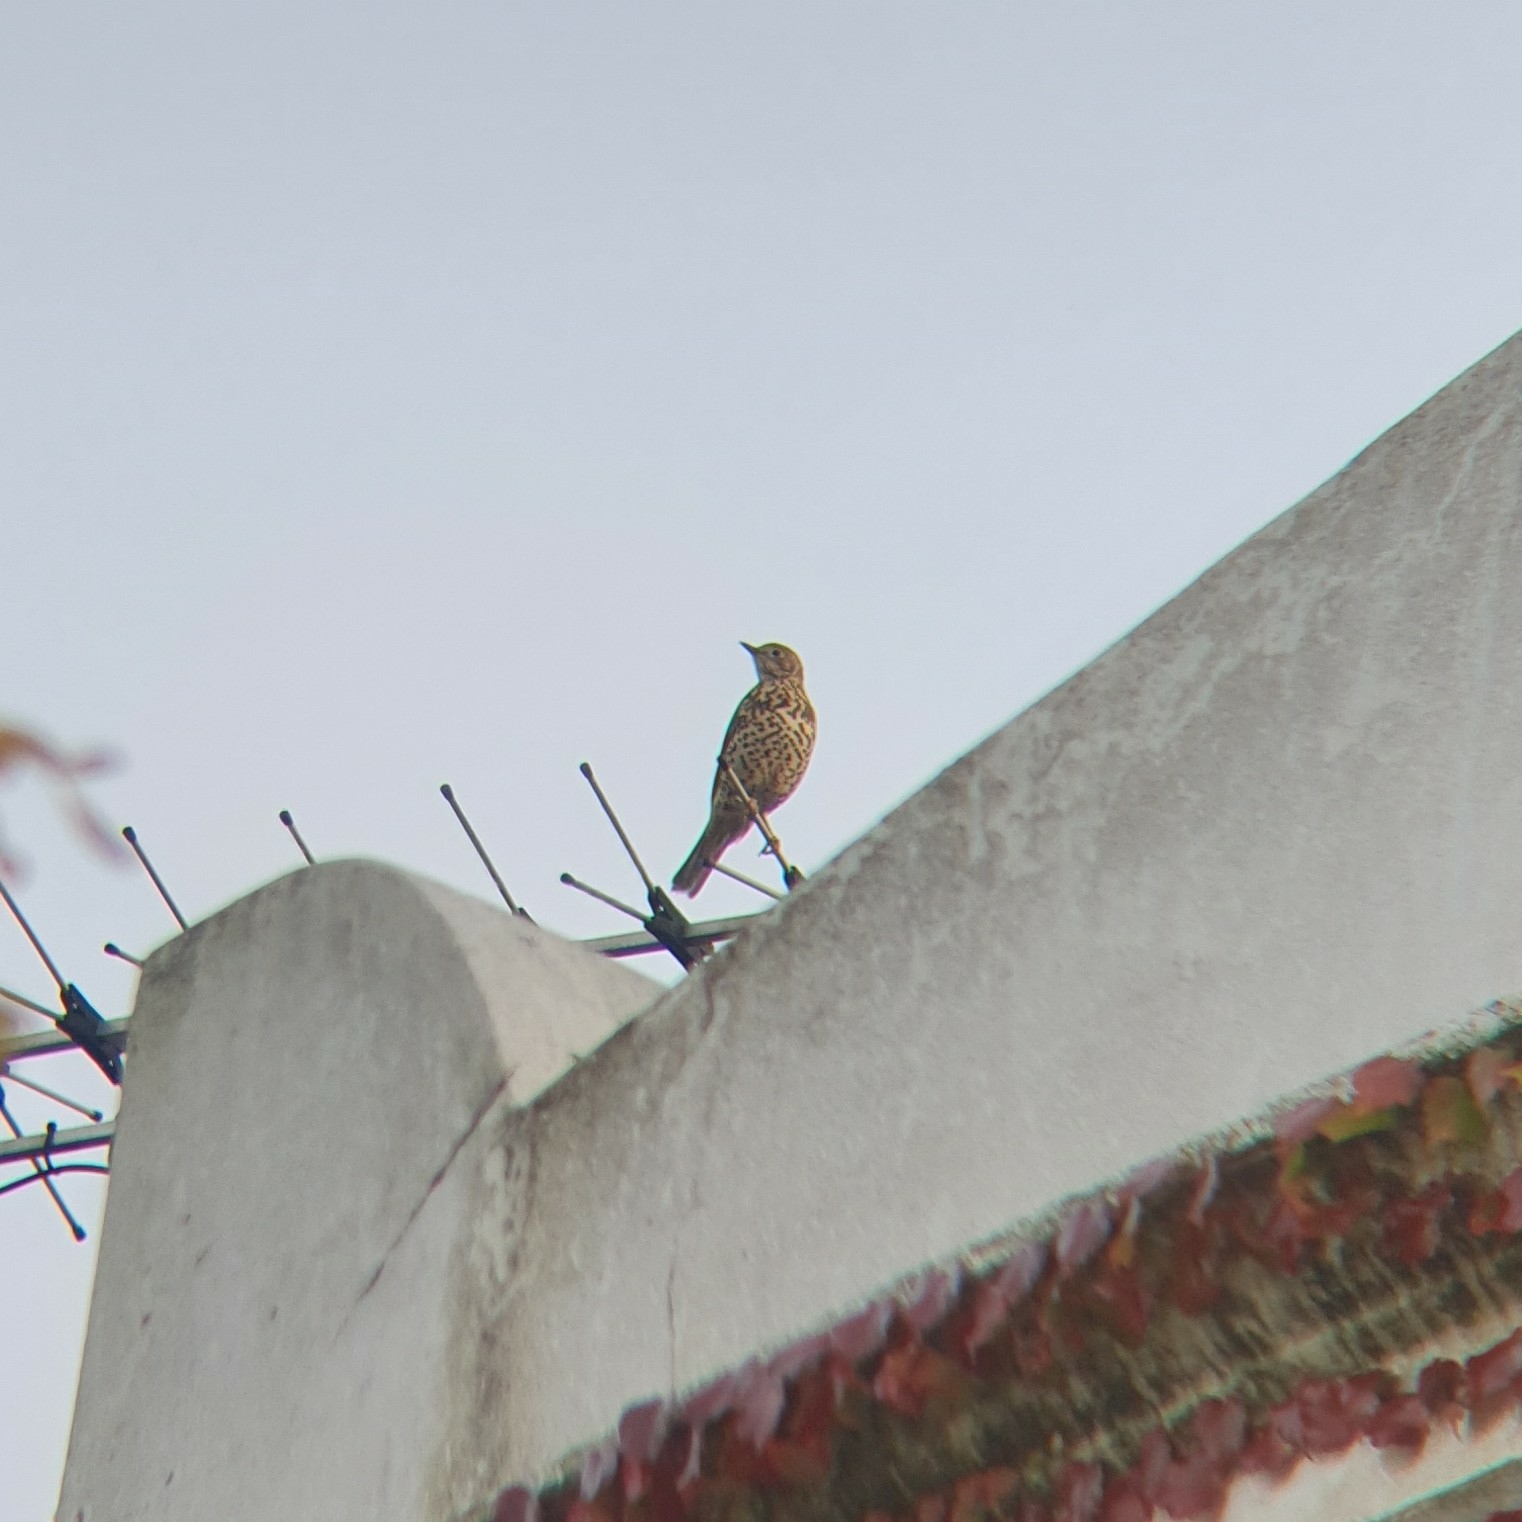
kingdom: Animalia
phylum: Chordata
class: Aves
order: Passeriformes
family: Turdidae
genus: Turdus
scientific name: Turdus viscivorus
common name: Mistle thrush
